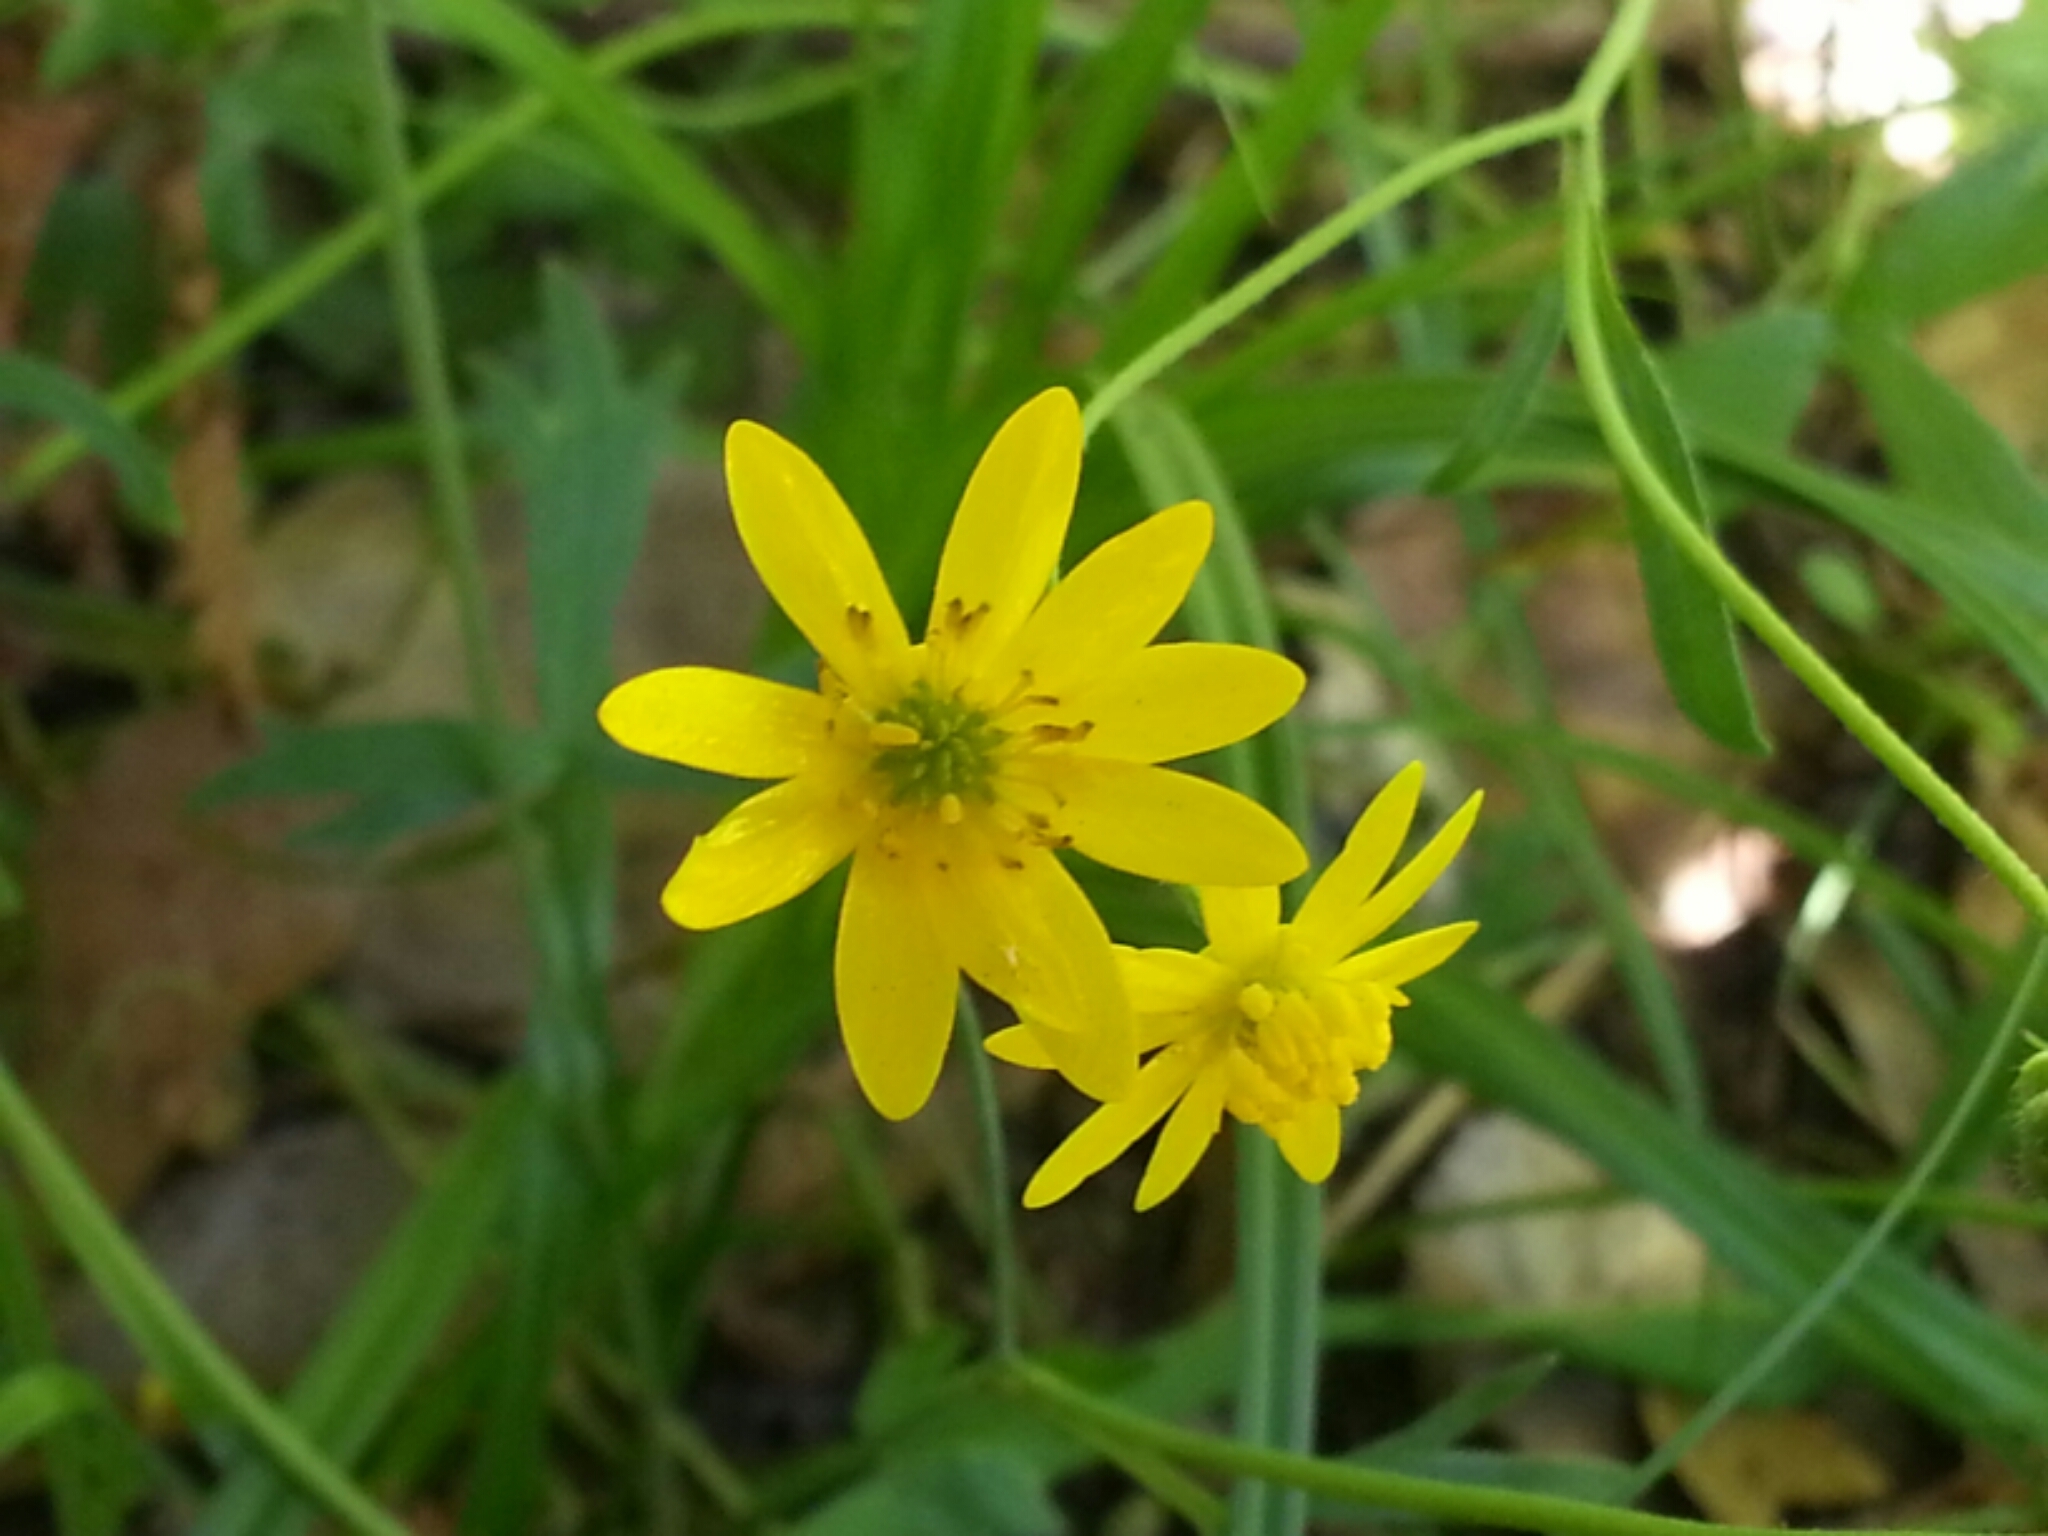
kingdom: Plantae
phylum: Tracheophyta
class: Magnoliopsida
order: Ranunculales
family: Ranunculaceae
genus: Ranunculus
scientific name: Ranunculus californicus
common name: California buttercup
